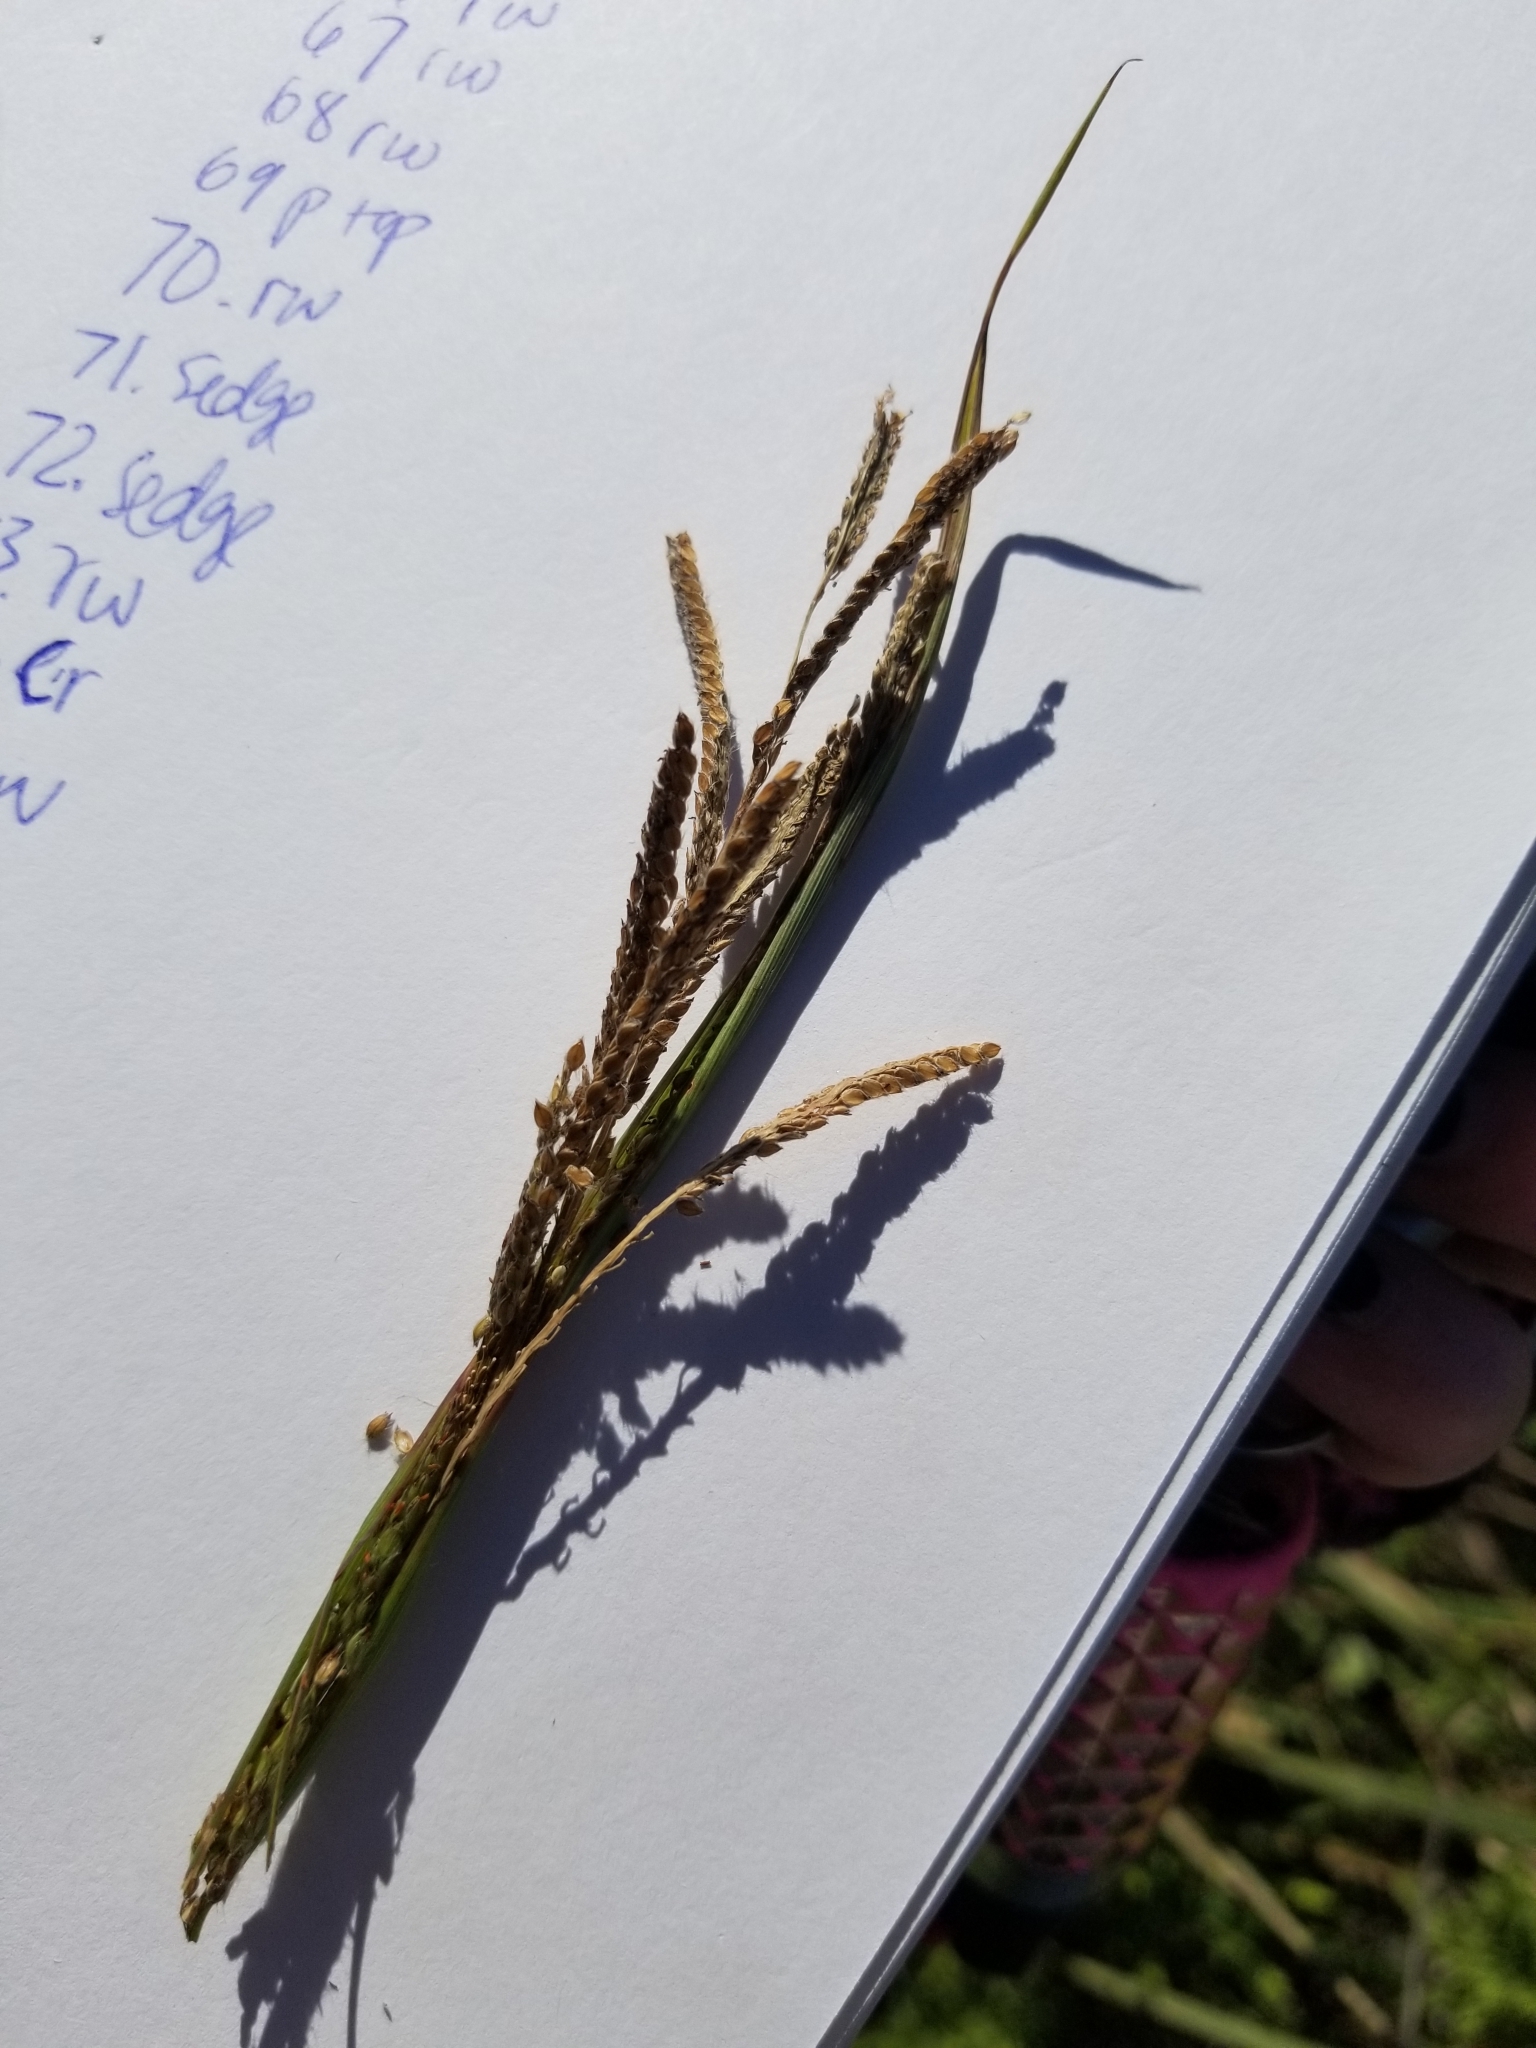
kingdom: Plantae
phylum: Tracheophyta
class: Liliopsida
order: Poales
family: Poaceae
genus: Paspalum
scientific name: Paspalum urvillei
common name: Vasey's grass
